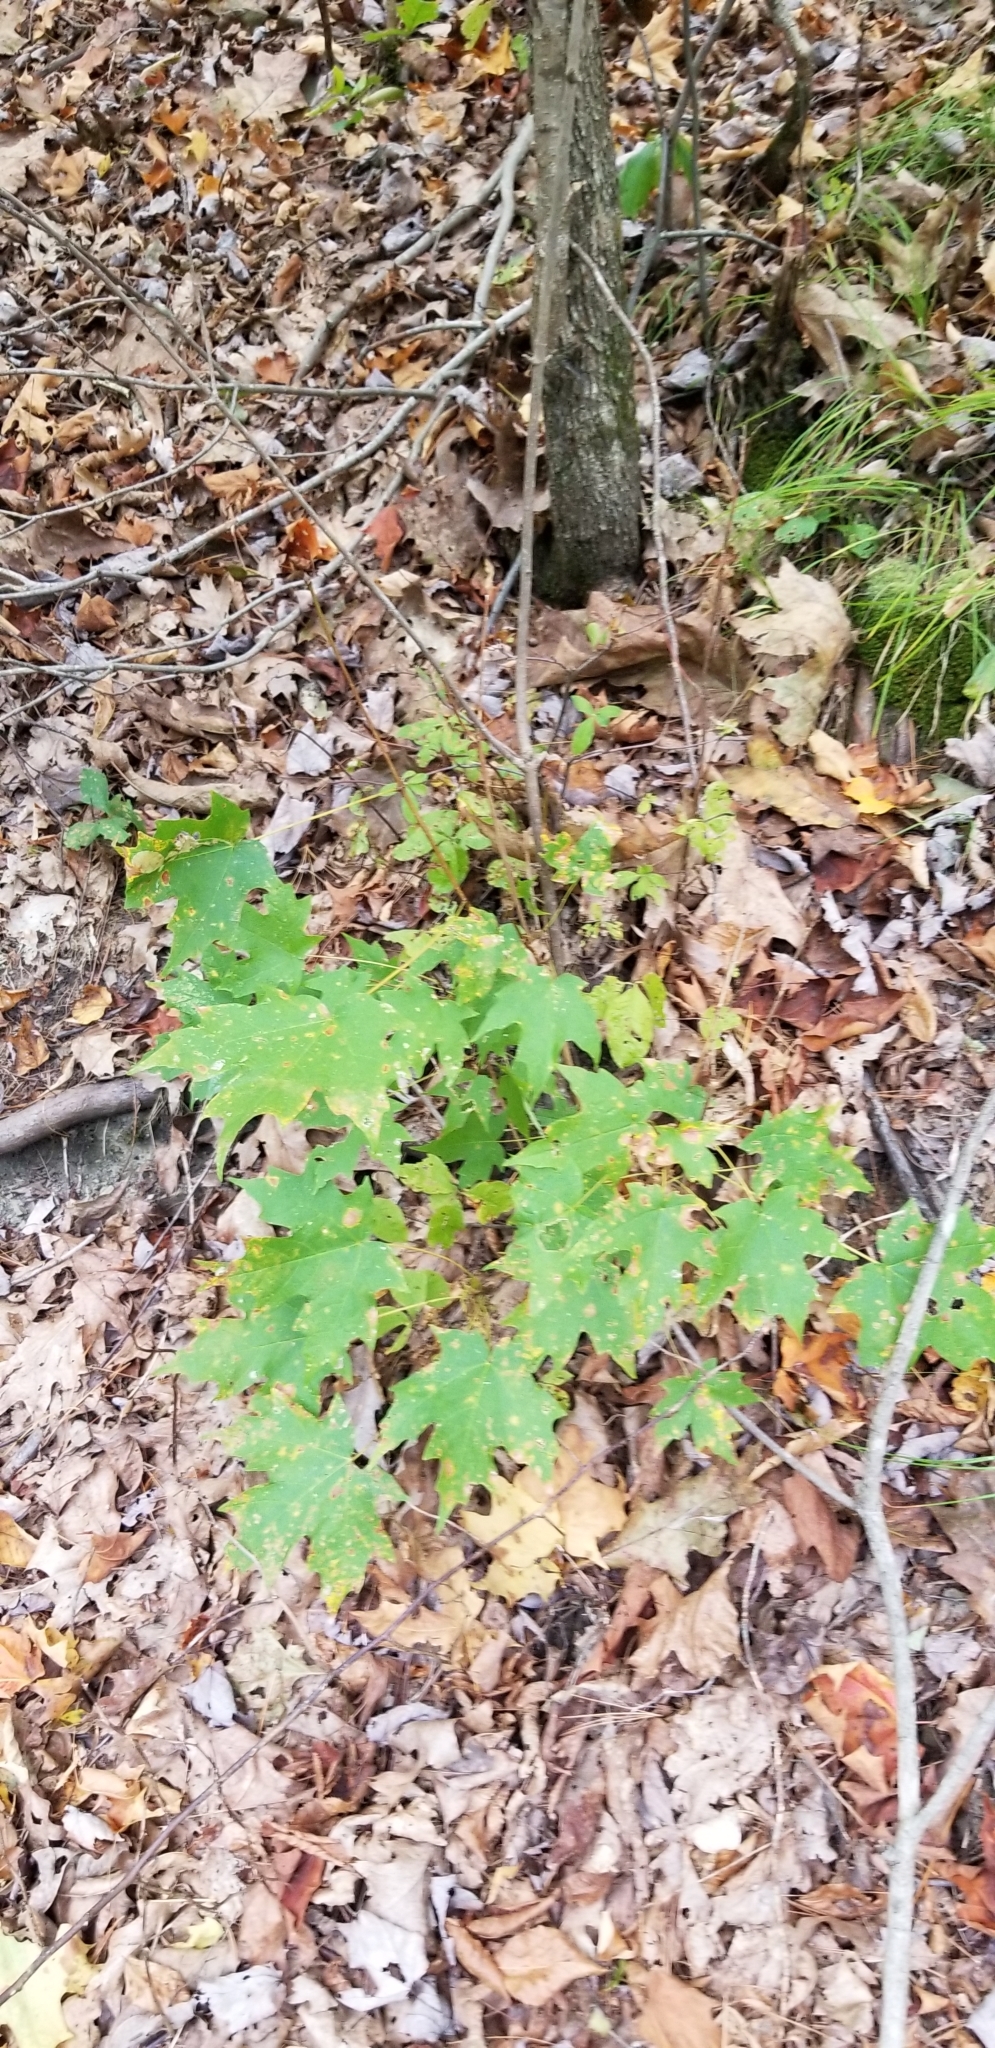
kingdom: Plantae
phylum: Tracheophyta
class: Magnoliopsida
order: Sapindales
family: Sapindaceae
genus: Acer
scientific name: Acer saccharum
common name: Sugar maple
